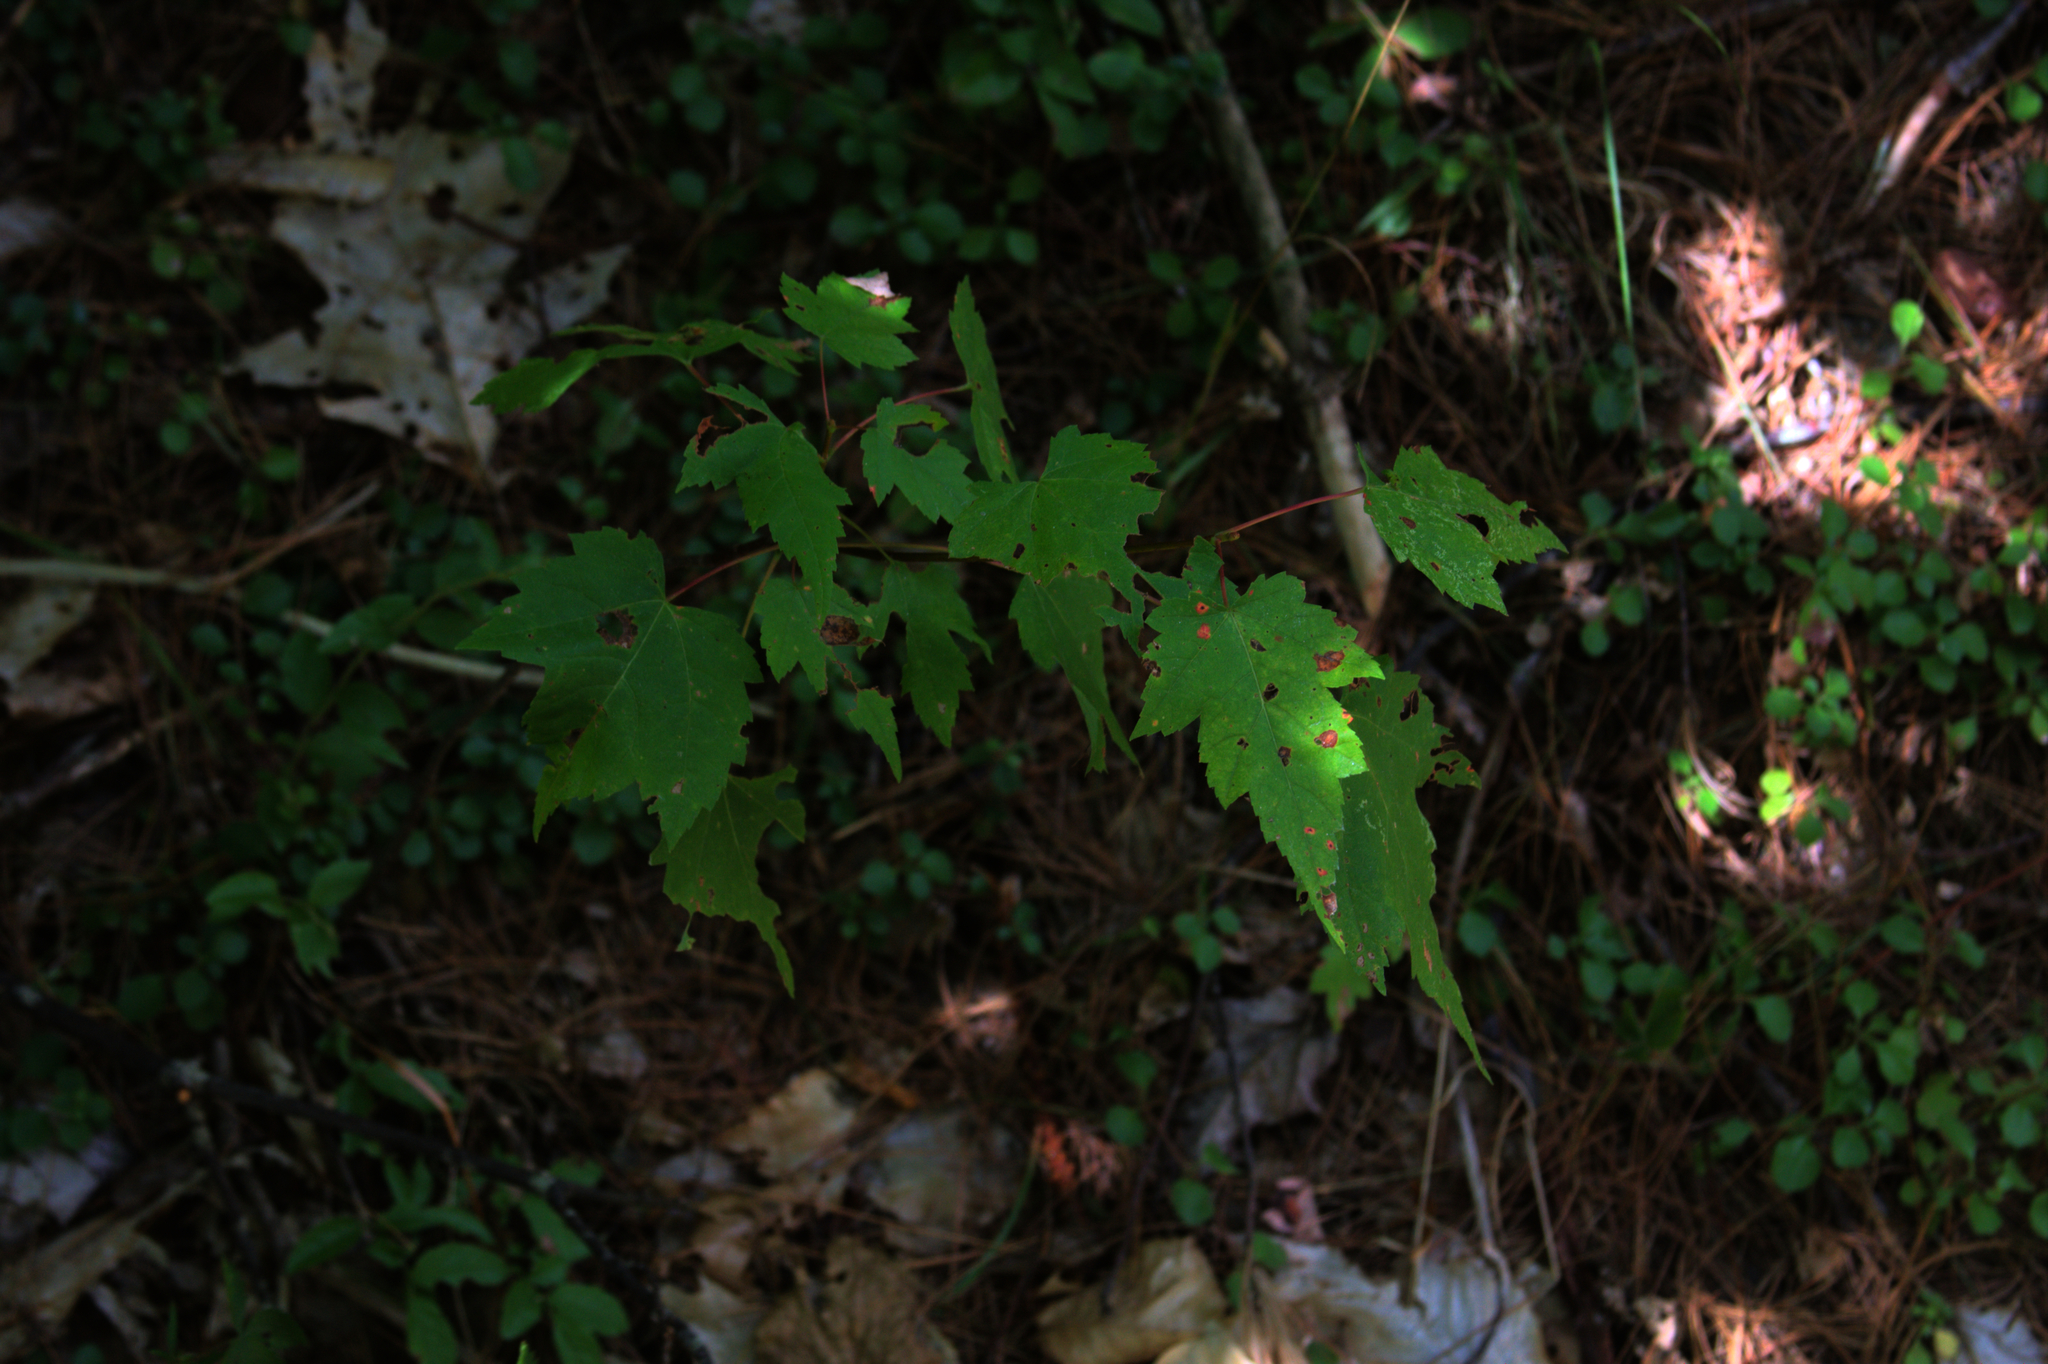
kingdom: Plantae
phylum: Tracheophyta
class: Magnoliopsida
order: Sapindales
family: Sapindaceae
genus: Acer
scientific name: Acer rubrum
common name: Red maple
